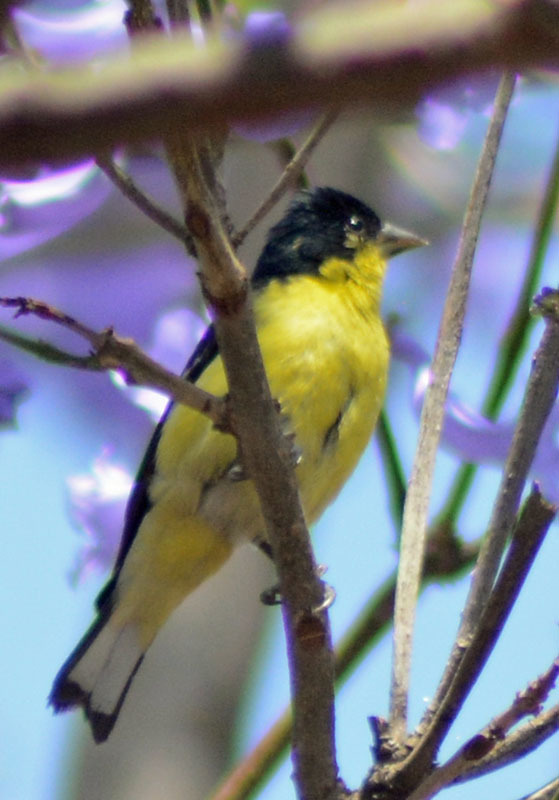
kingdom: Animalia
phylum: Chordata
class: Aves
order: Passeriformes
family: Fringillidae
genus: Spinus
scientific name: Spinus psaltria
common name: Lesser goldfinch
